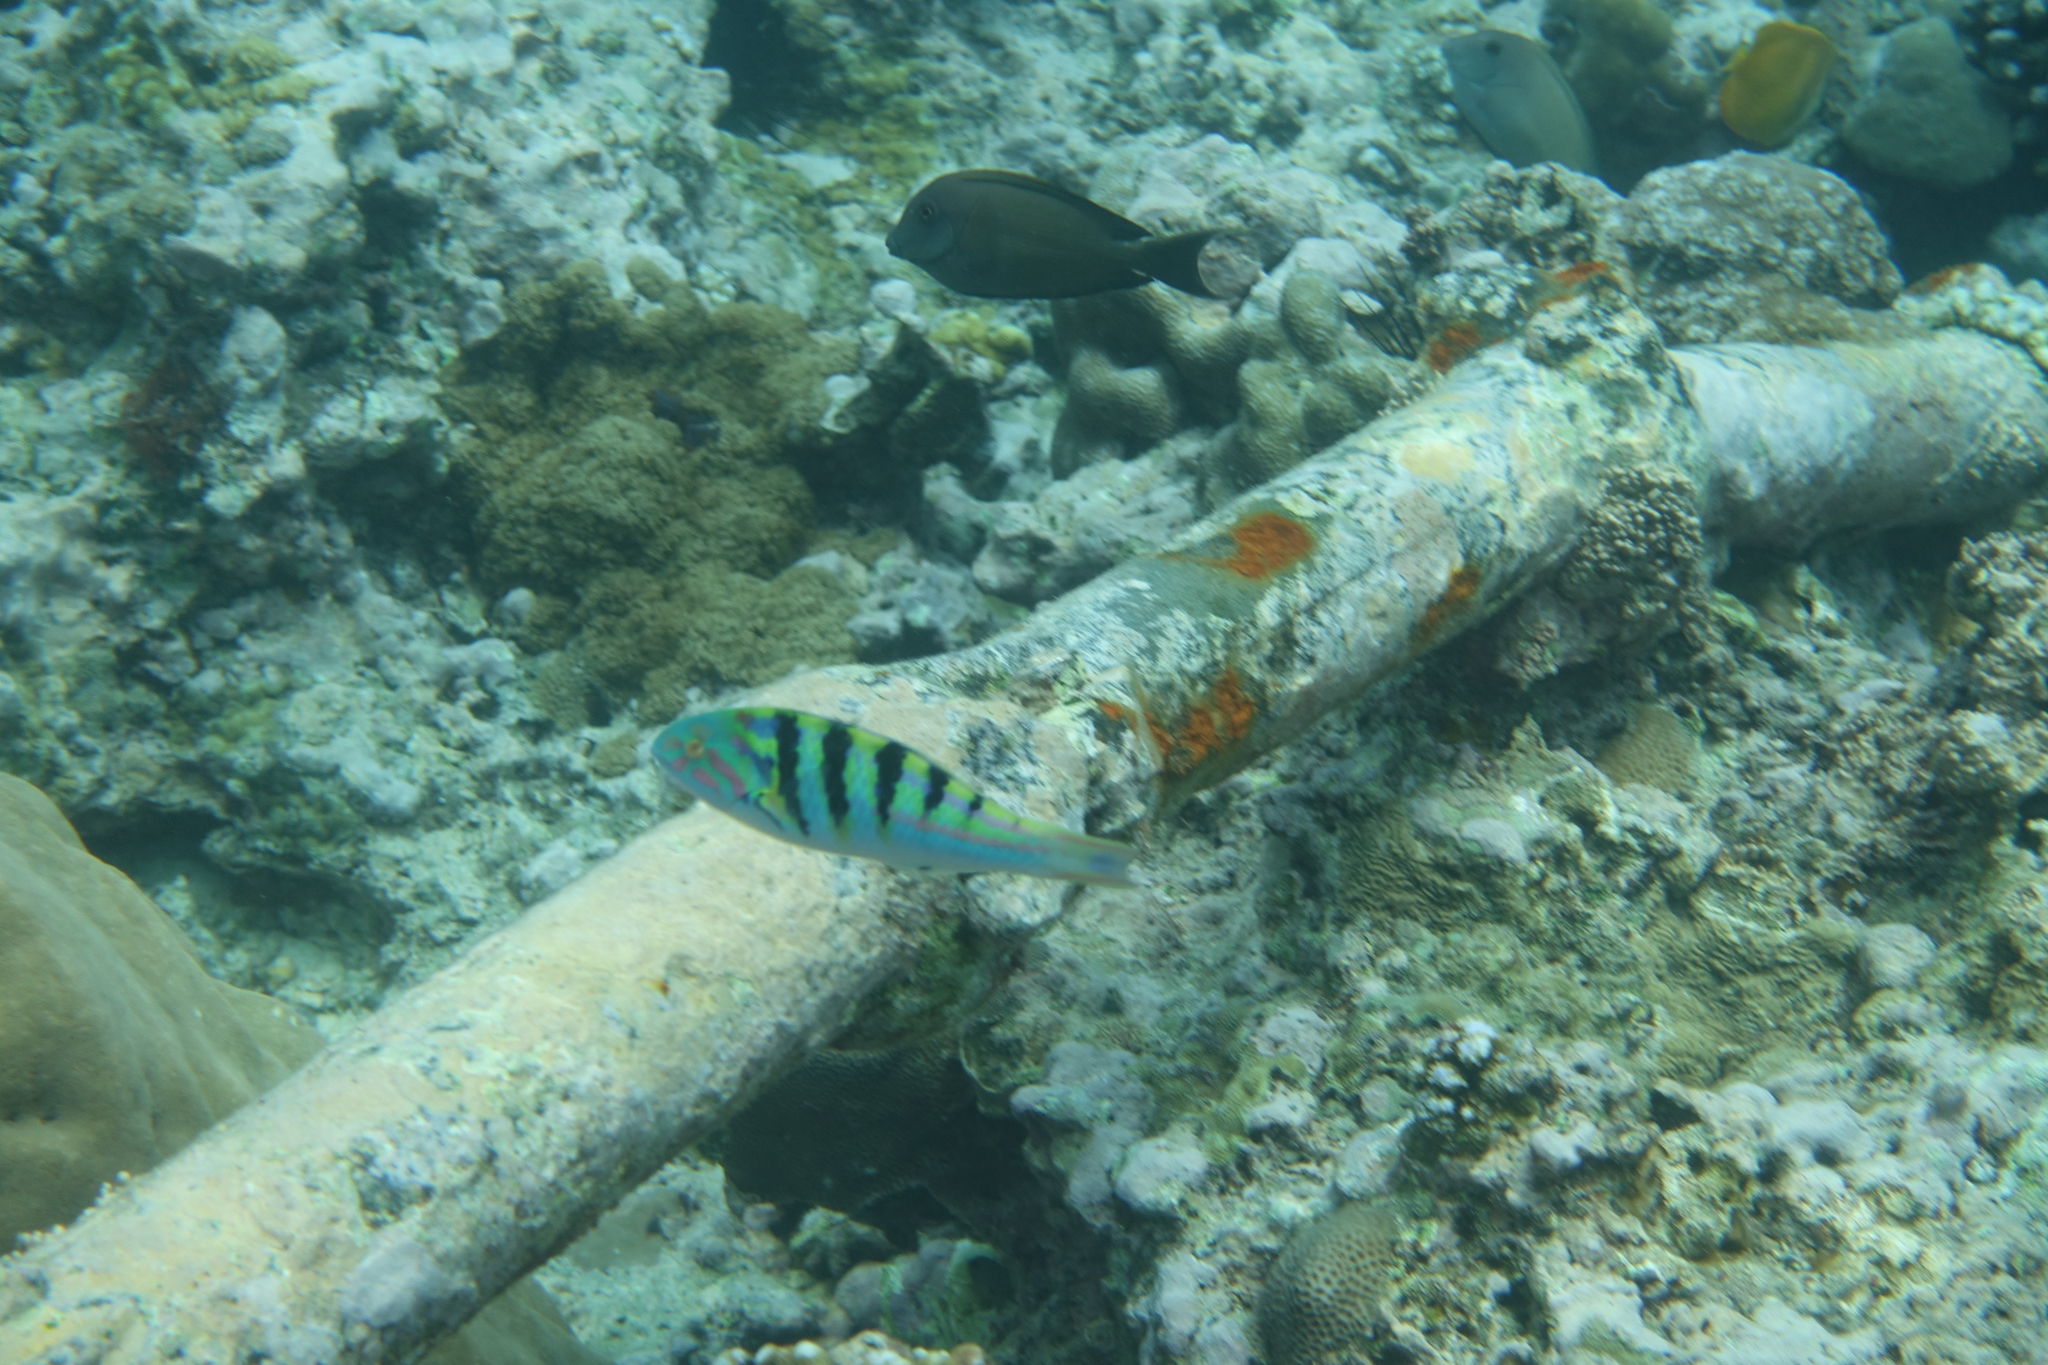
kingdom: Animalia
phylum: Chordata
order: Perciformes
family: Labridae
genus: Thalassoma
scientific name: Thalassoma hardwicke
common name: Sixbar wrasse
